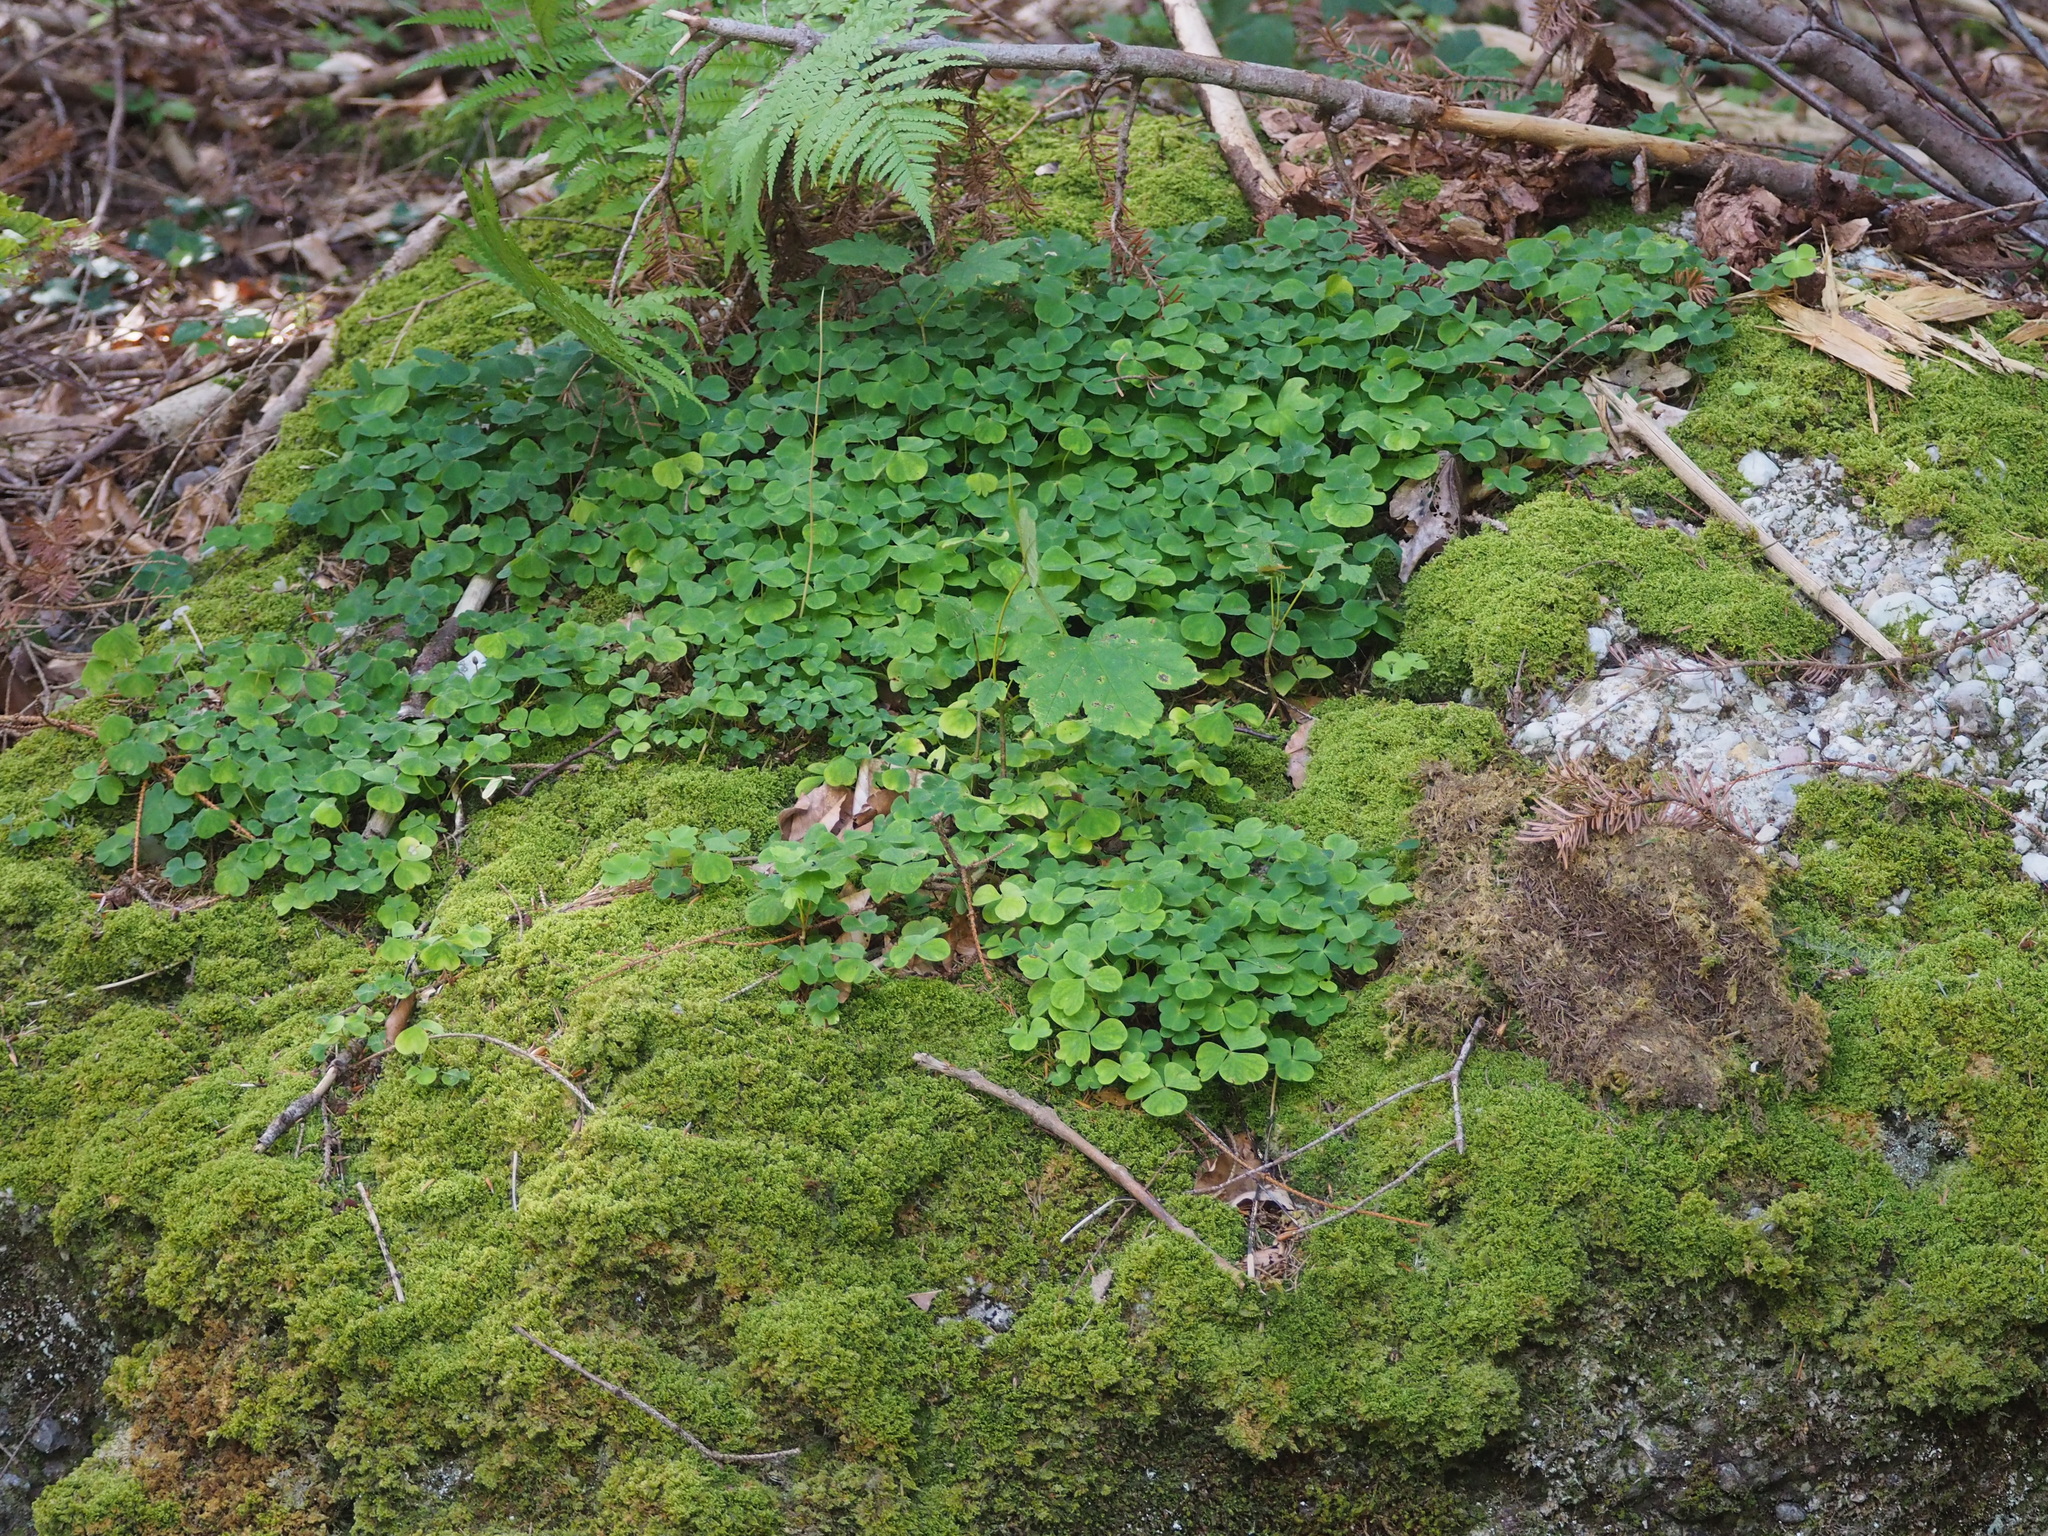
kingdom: Plantae
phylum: Tracheophyta
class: Magnoliopsida
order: Oxalidales
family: Oxalidaceae
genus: Oxalis
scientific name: Oxalis acetosella
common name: Wood-sorrel
